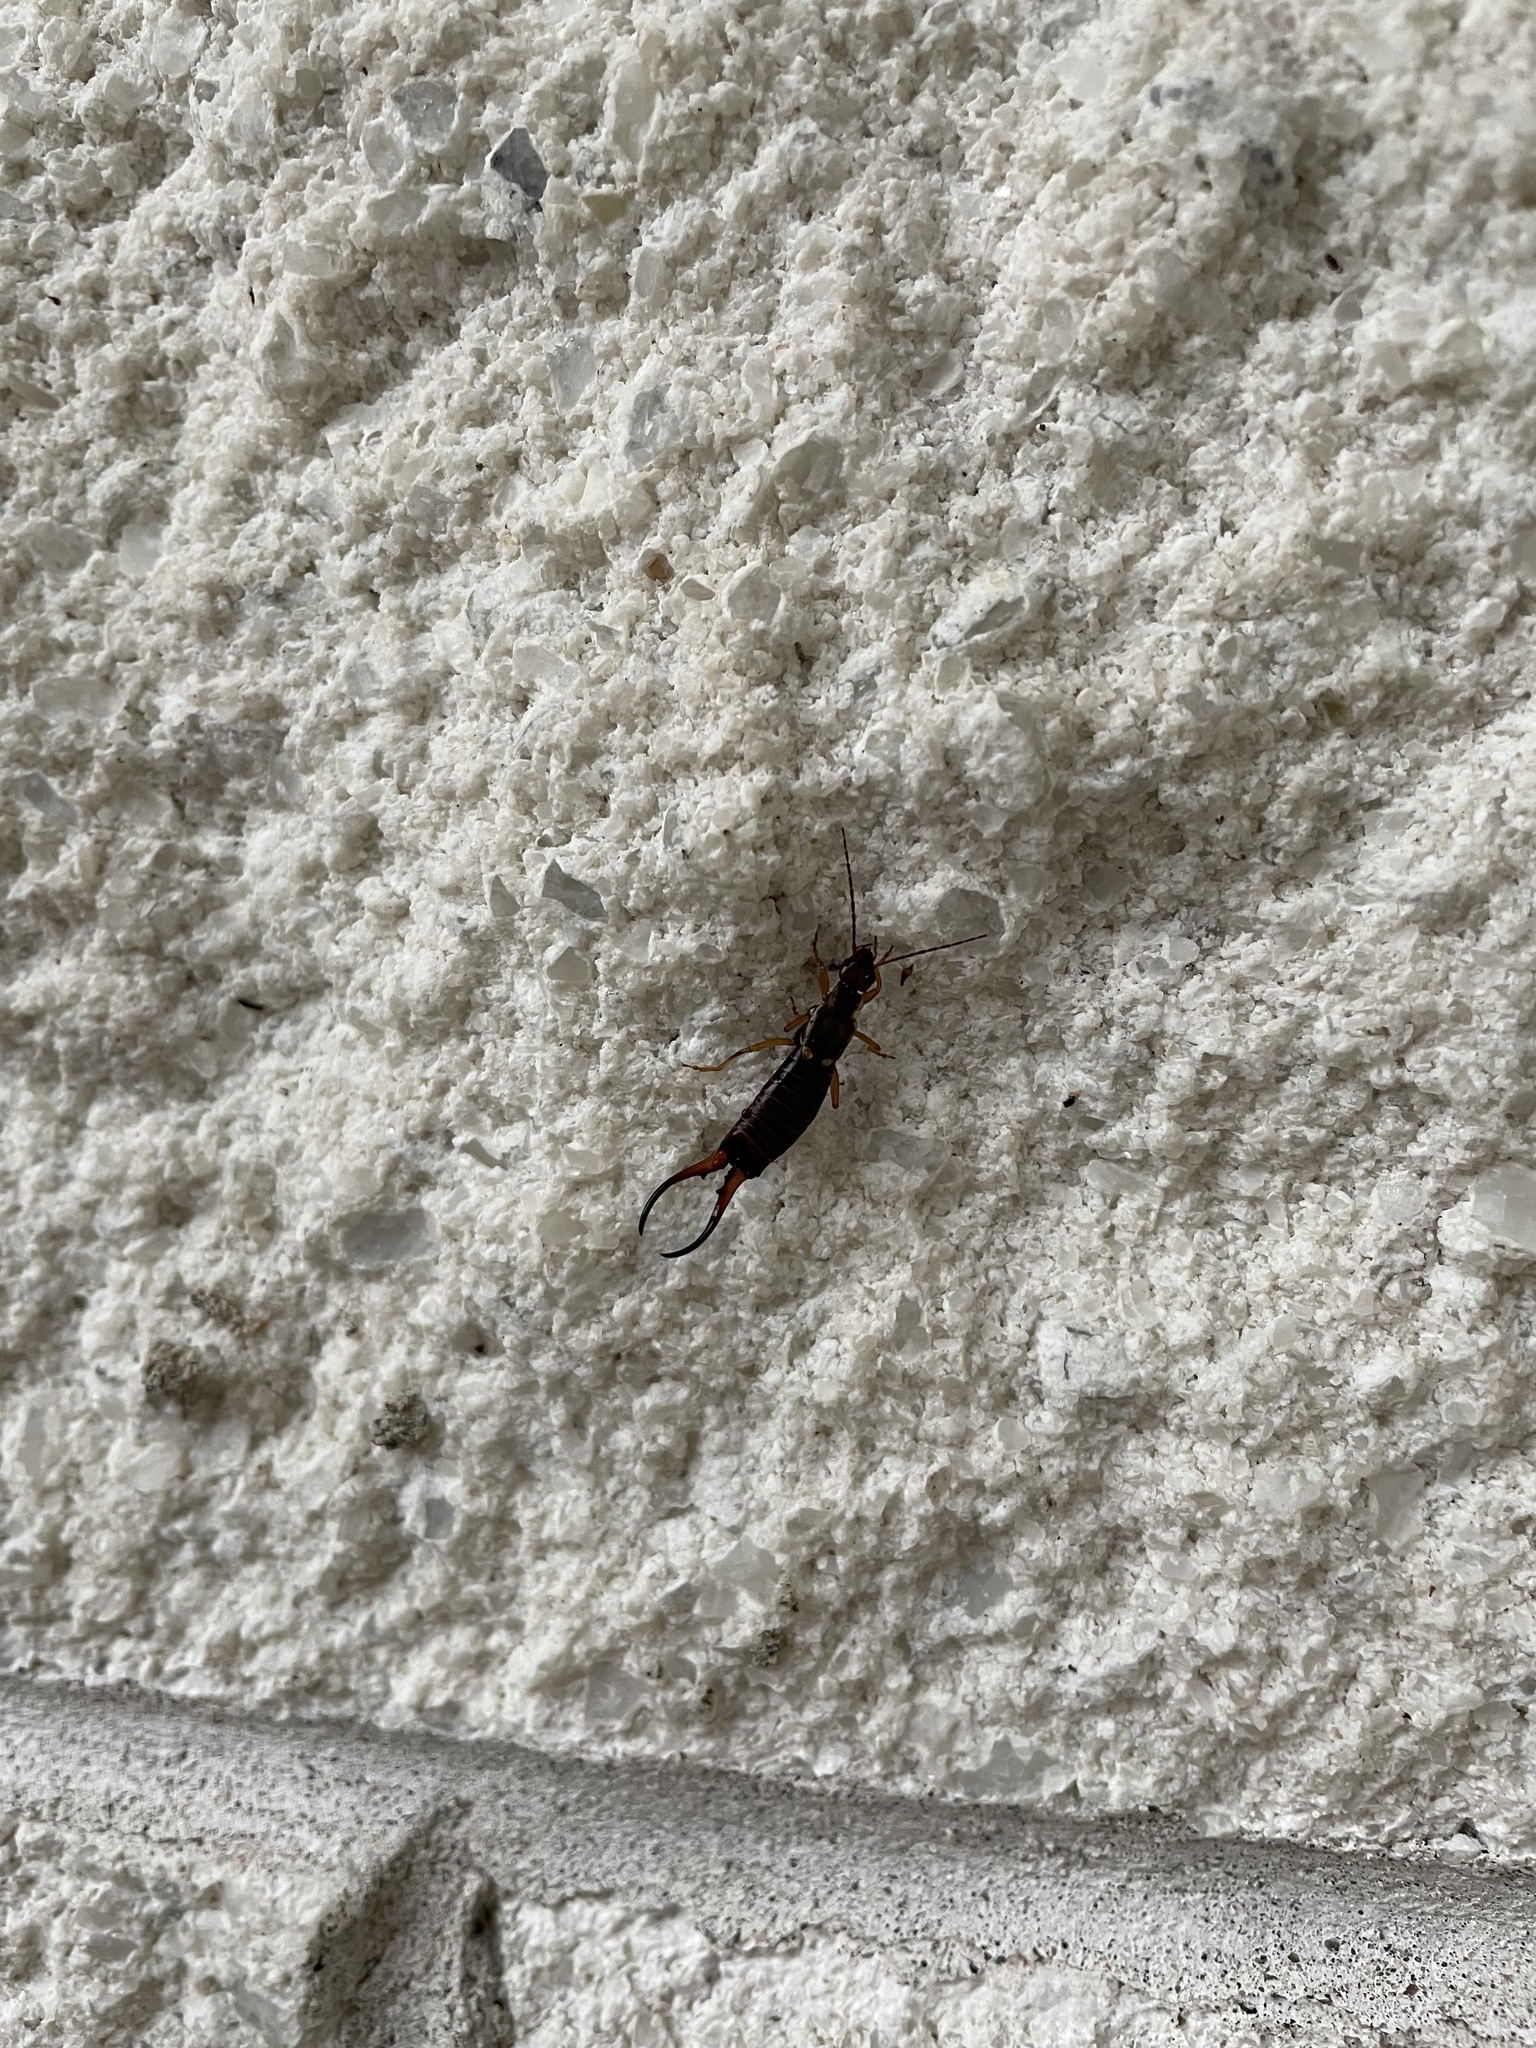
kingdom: Animalia
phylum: Arthropoda
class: Insecta
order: Dermaptera
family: Forficulidae
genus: Forficula
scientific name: Forficula
